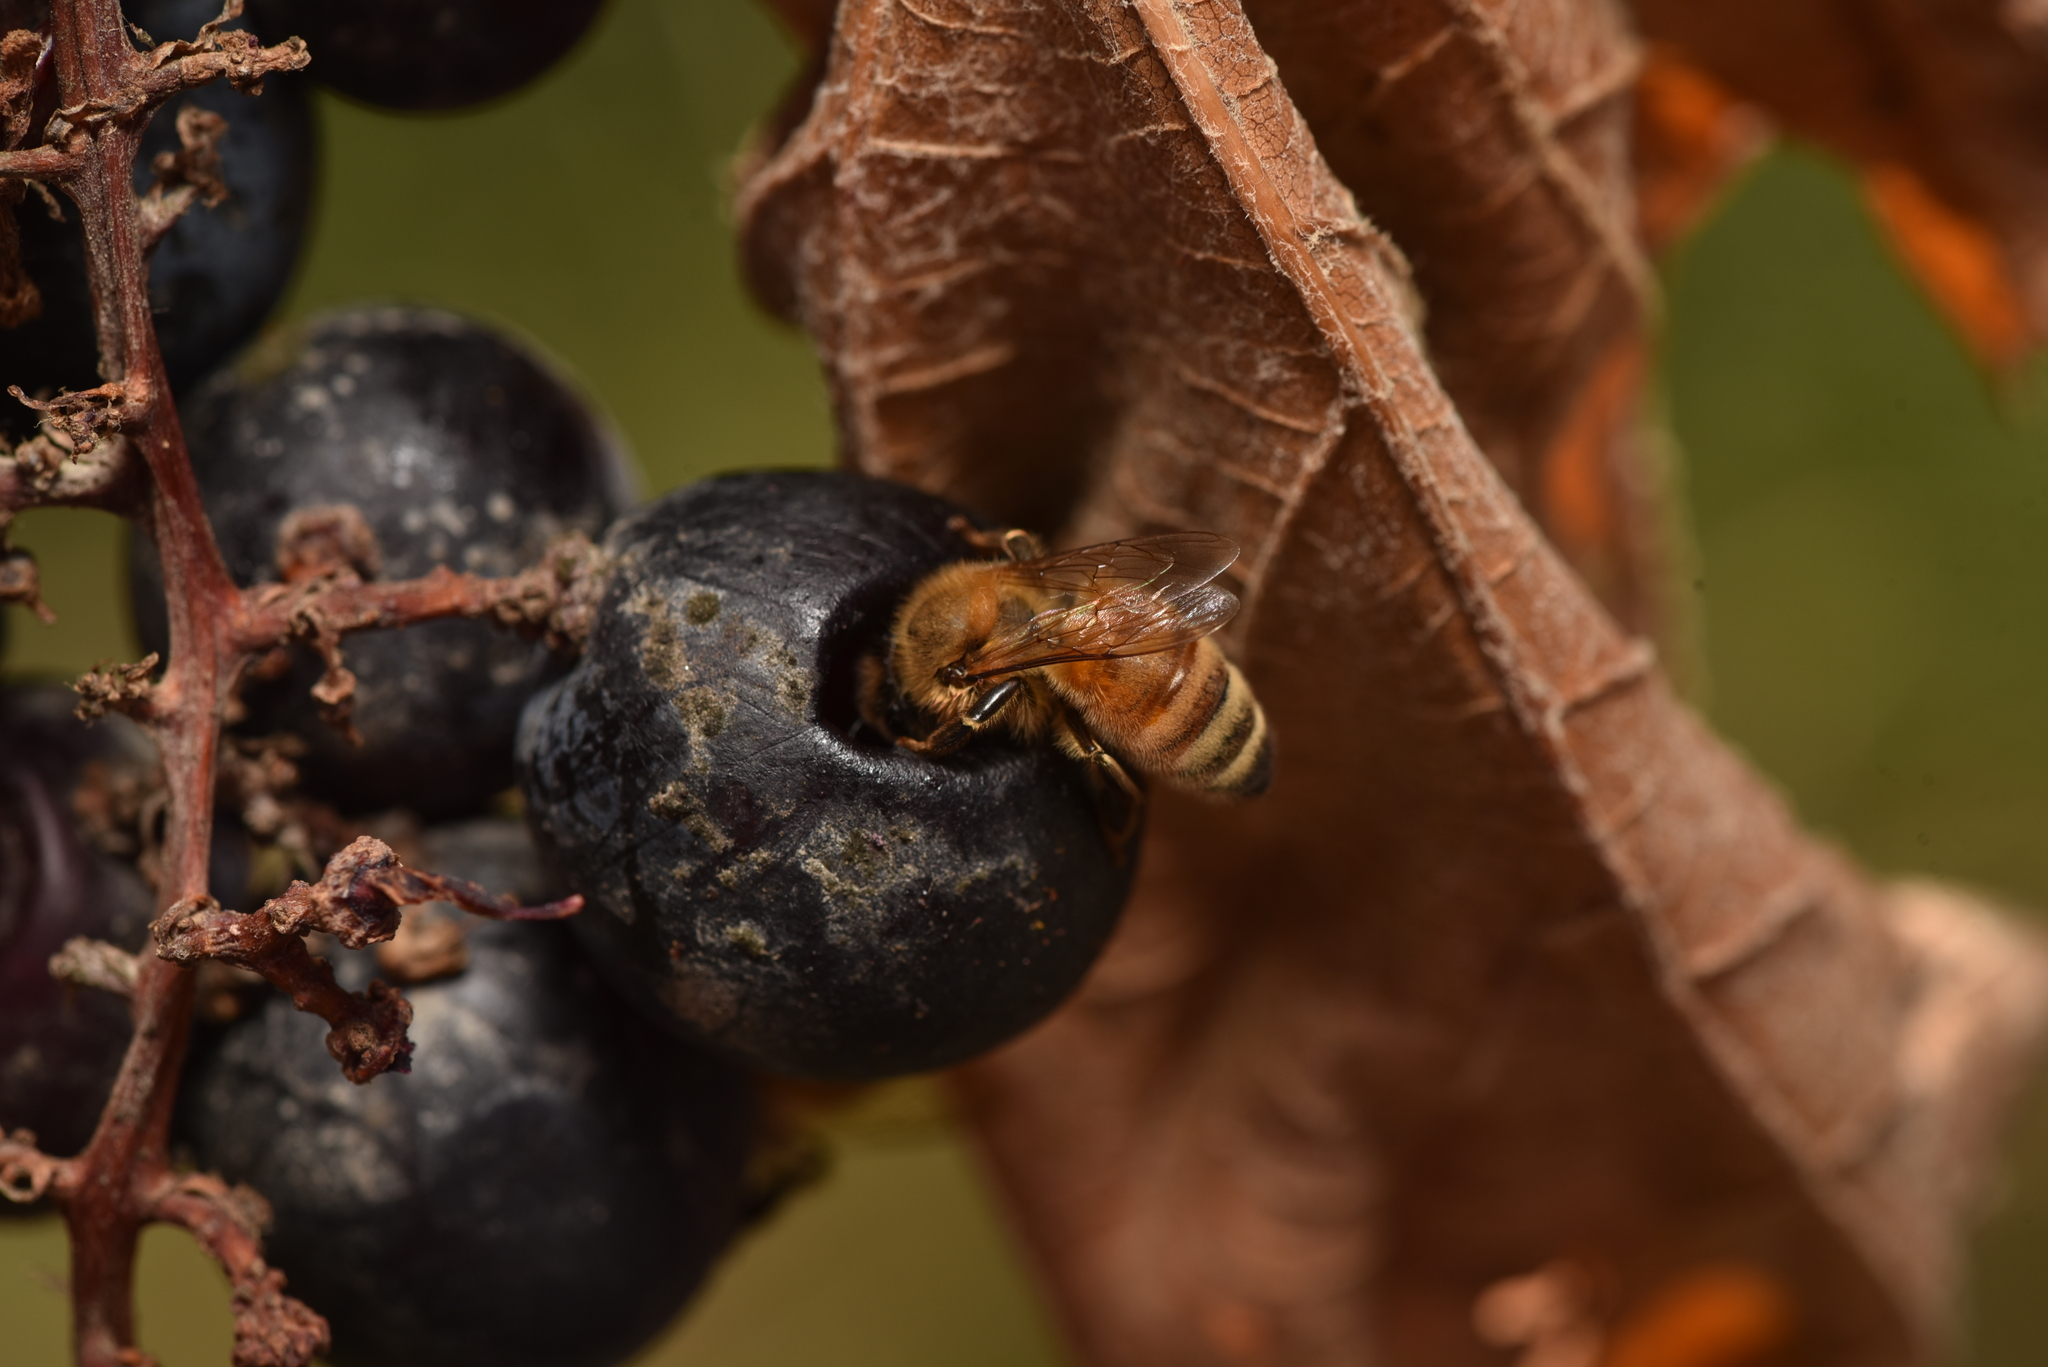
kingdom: Animalia
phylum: Arthropoda
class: Insecta
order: Hymenoptera
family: Apidae
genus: Apis
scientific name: Apis mellifera
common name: Honey bee
